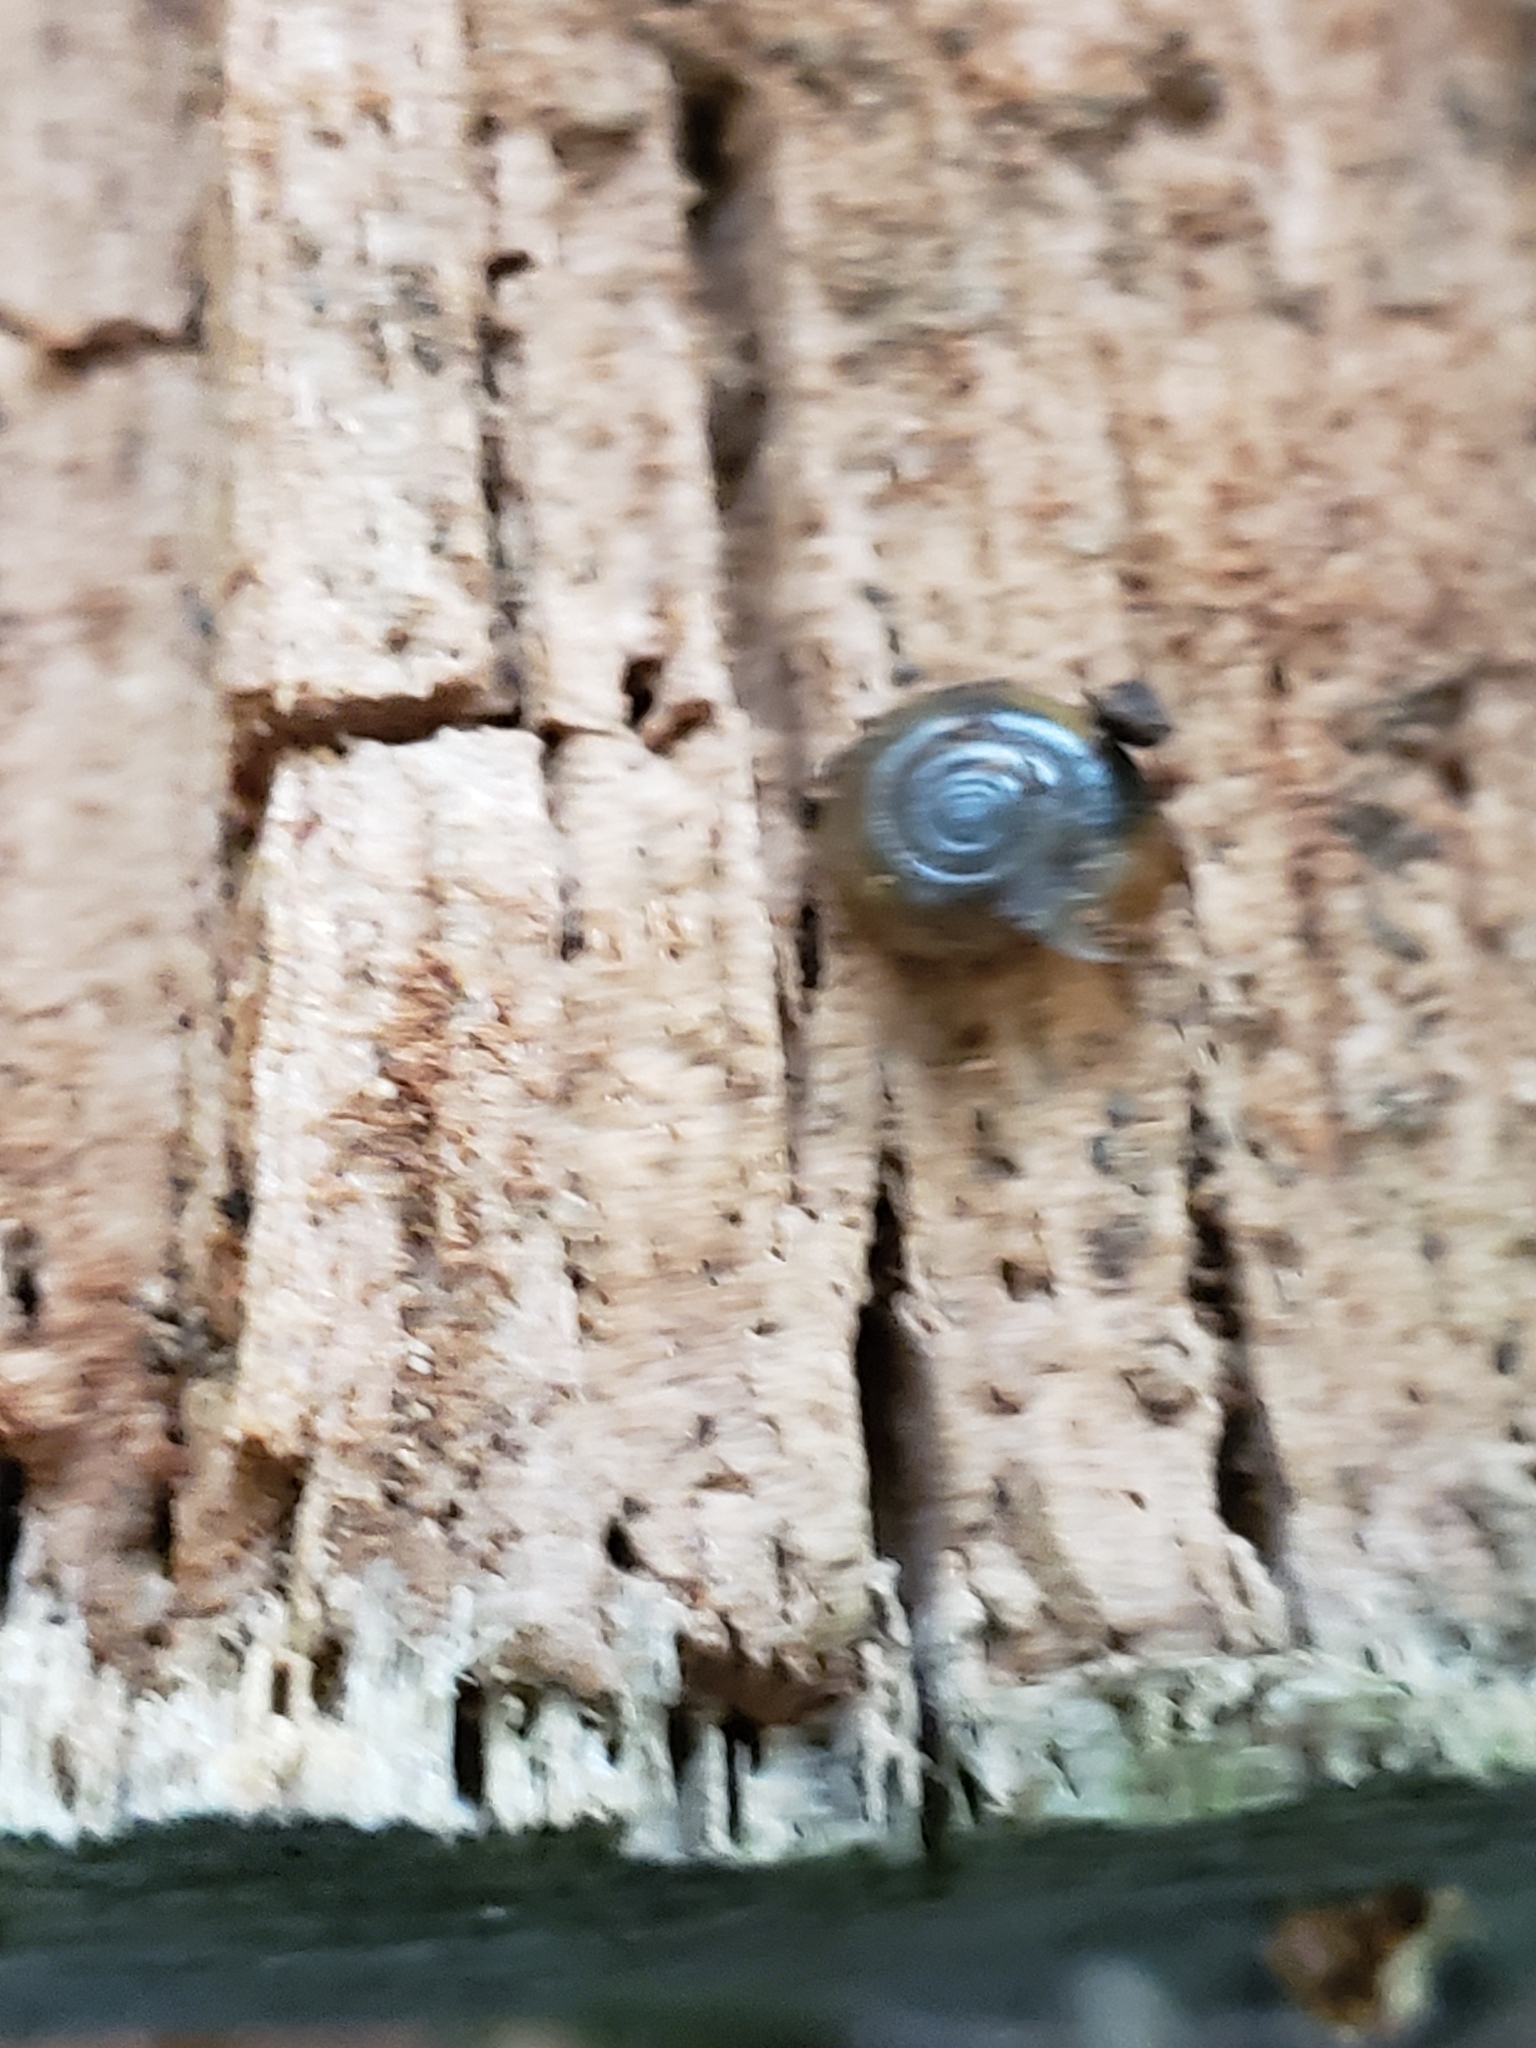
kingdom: Animalia
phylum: Mollusca
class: Gastropoda
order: Stylommatophora
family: Oxychilidae
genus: Oxychilus
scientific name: Oxychilus draparnaudi
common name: Draparnaud's glass snail
